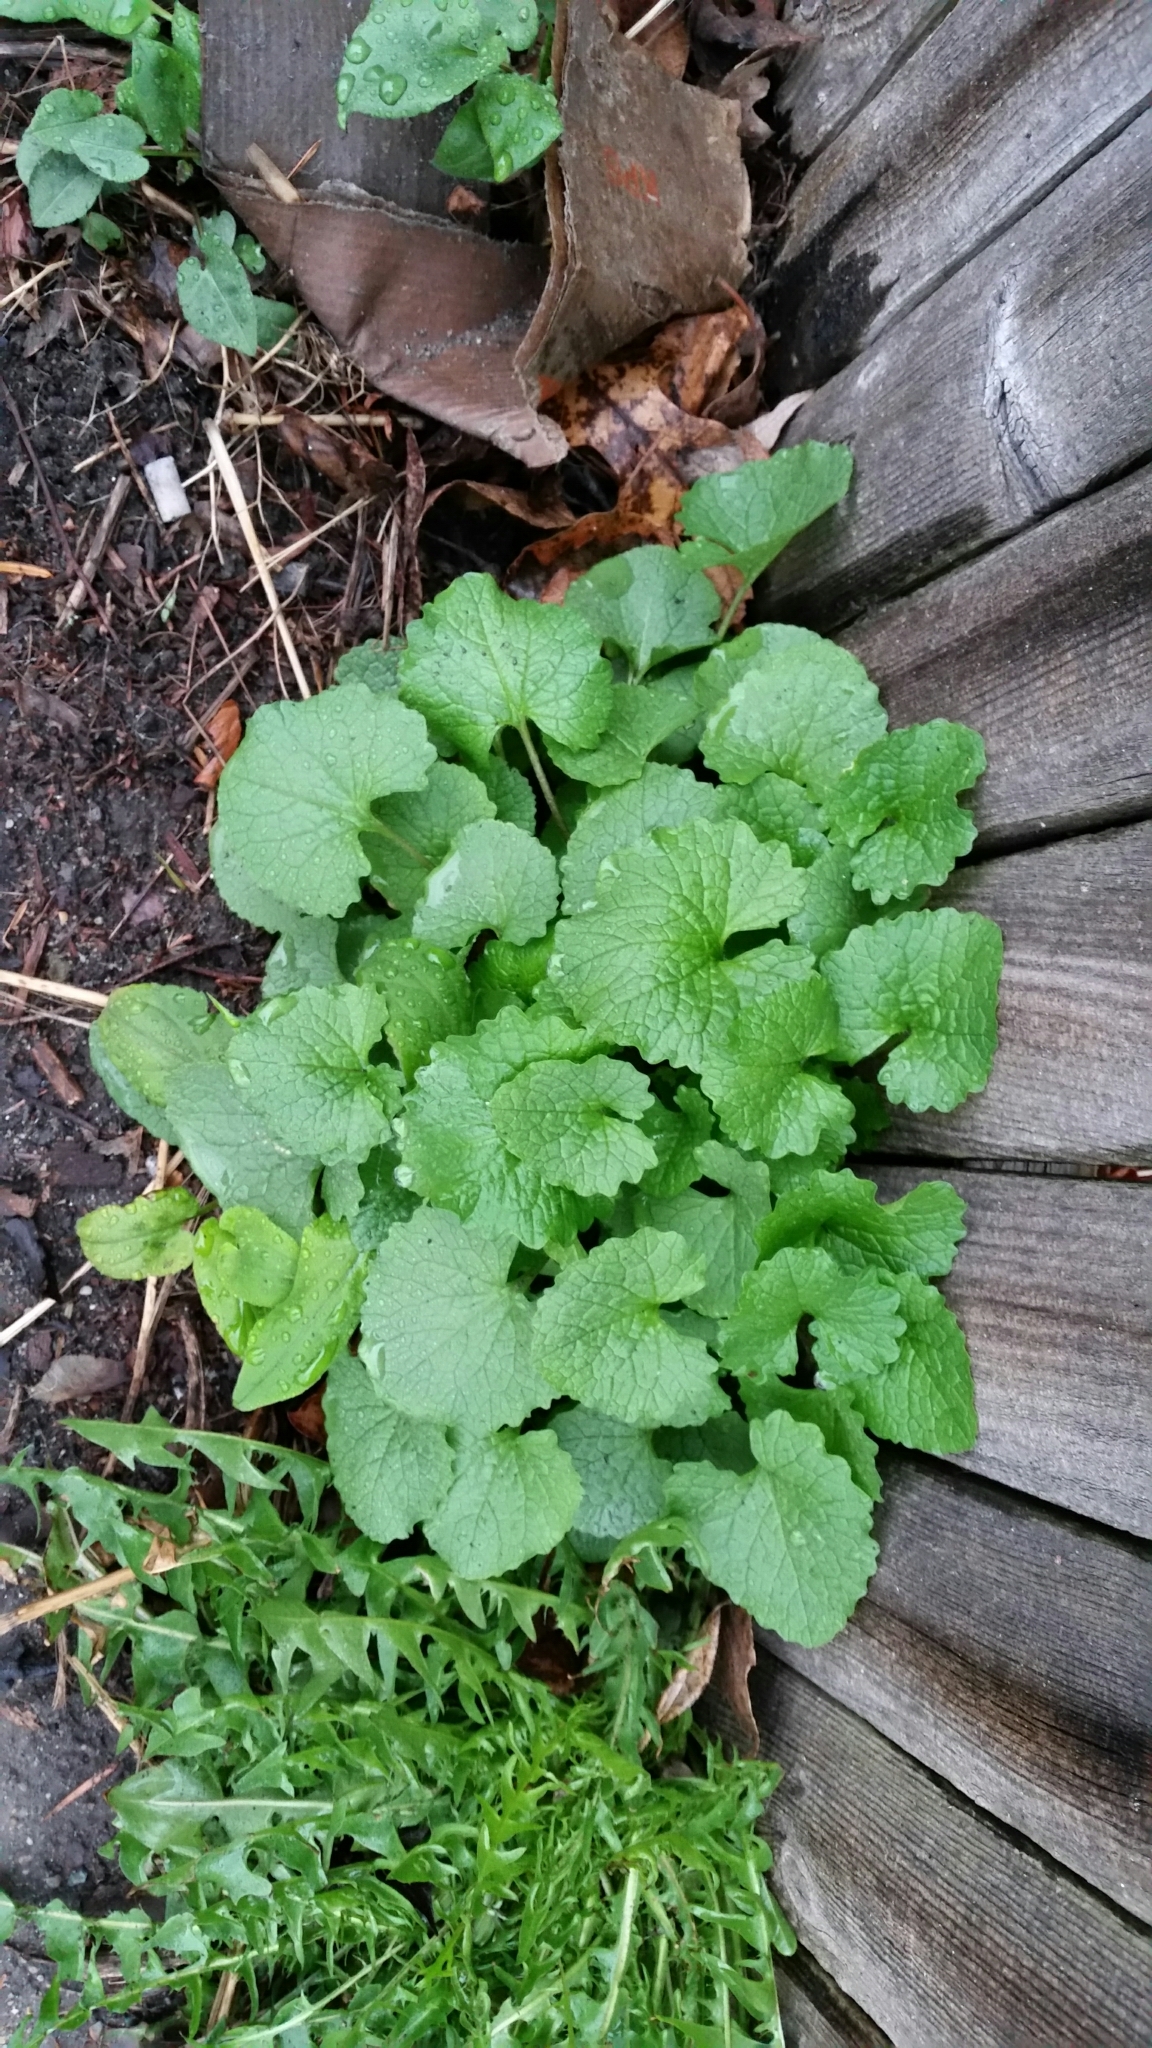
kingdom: Plantae
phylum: Tracheophyta
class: Magnoliopsida
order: Brassicales
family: Brassicaceae
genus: Alliaria
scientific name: Alliaria petiolata
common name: Garlic mustard
